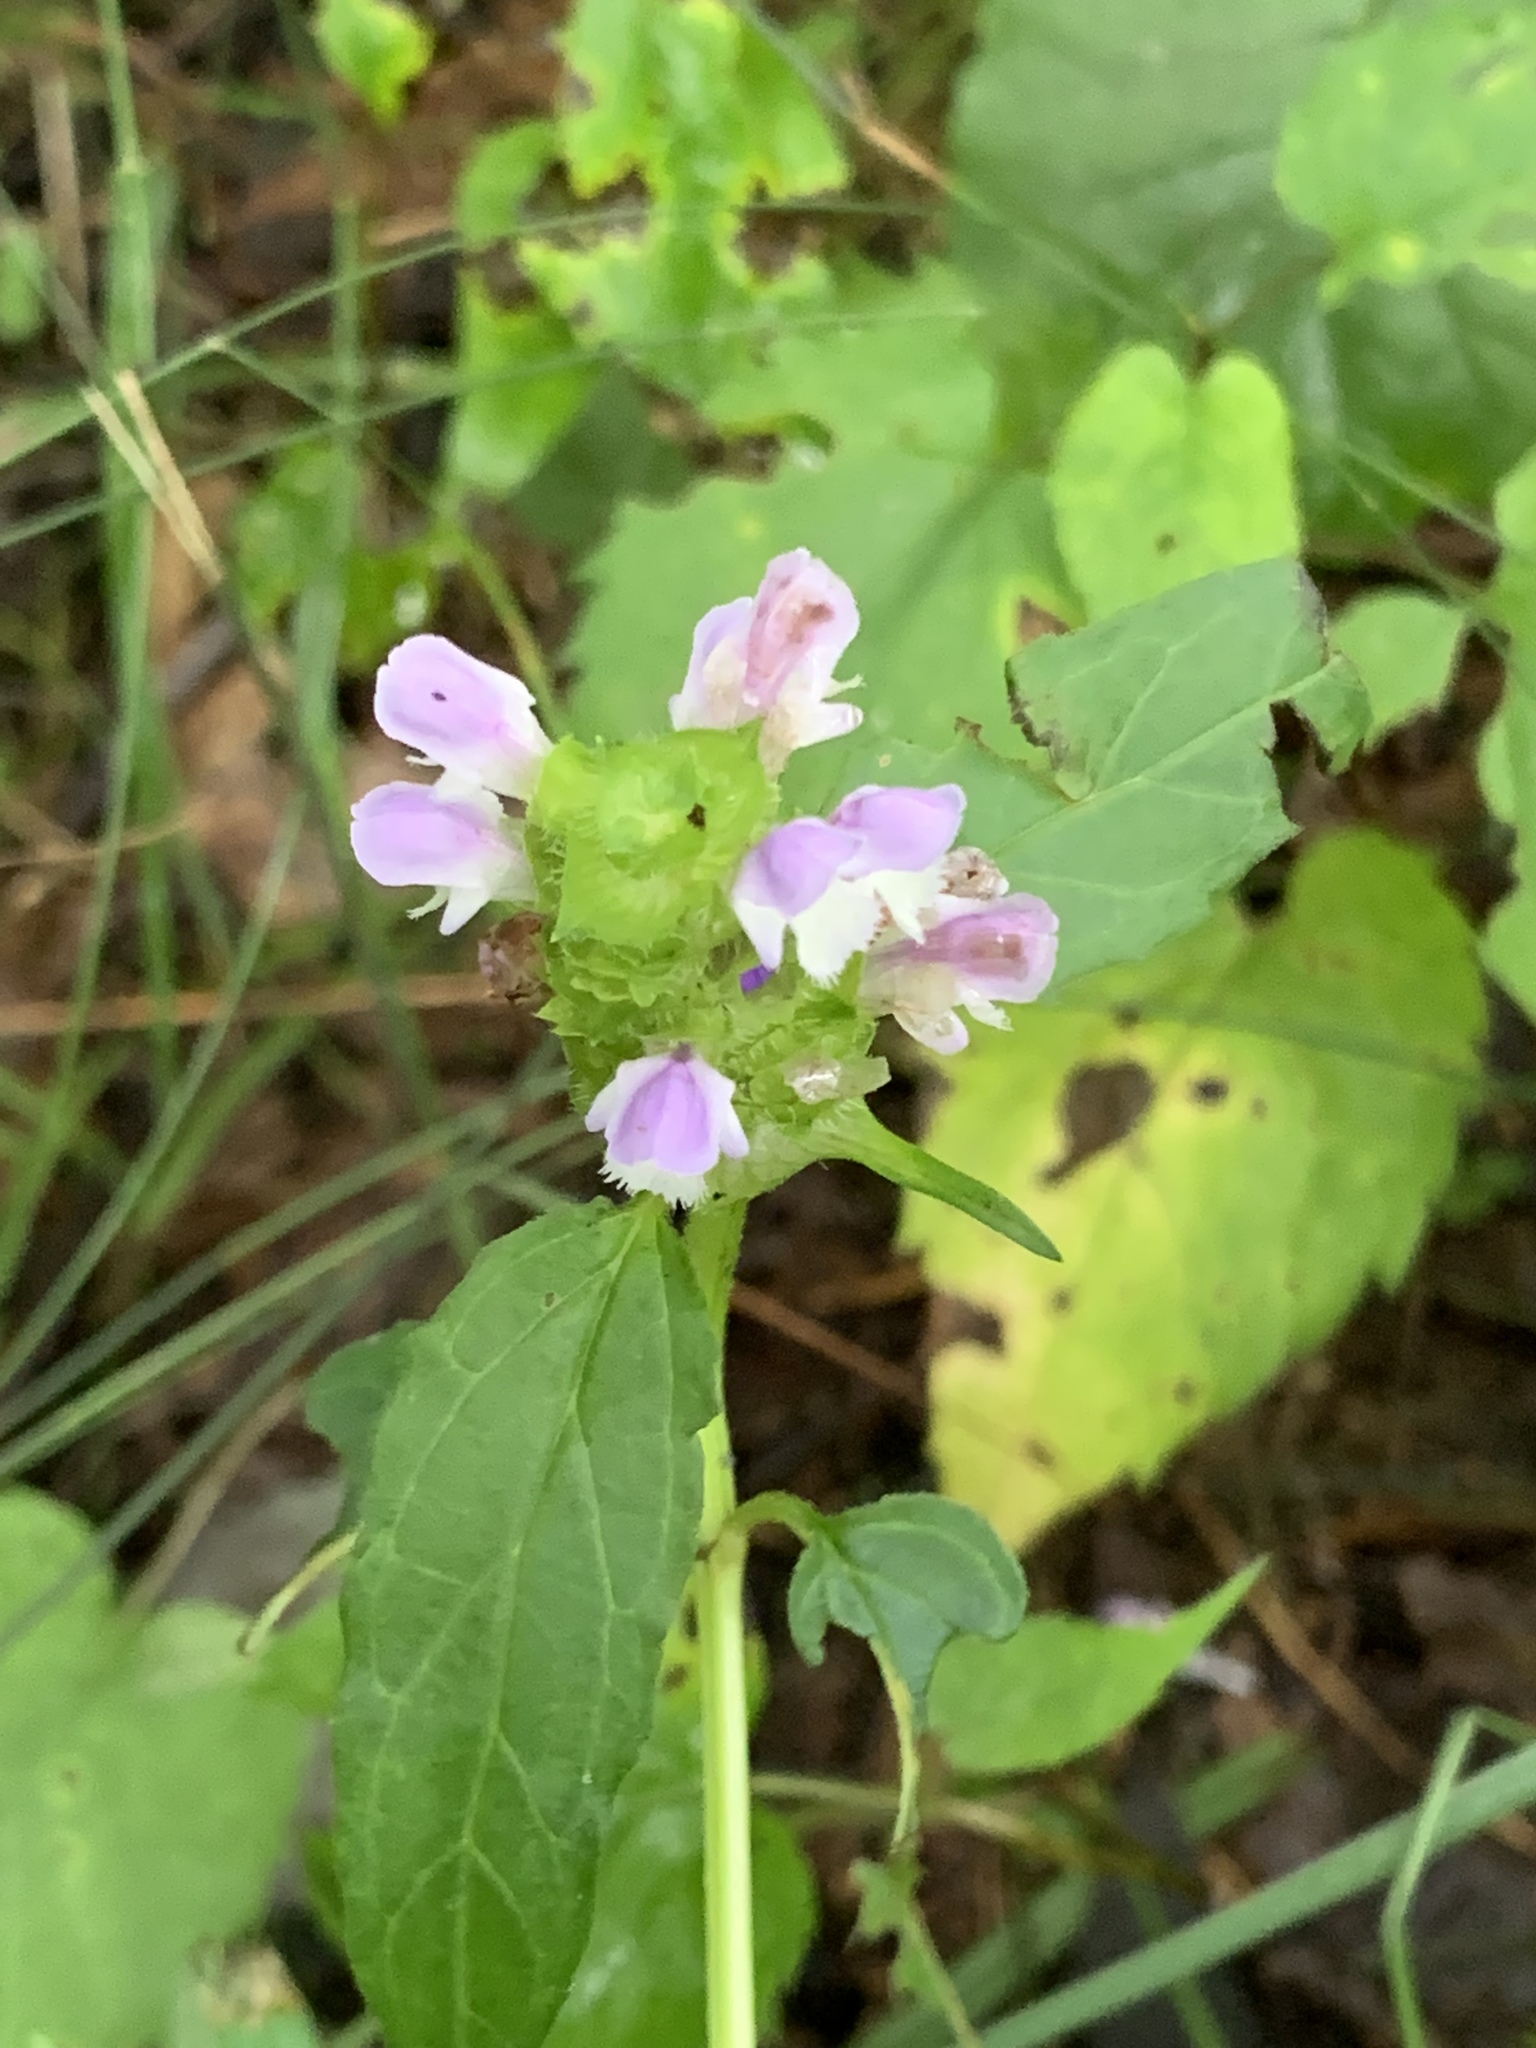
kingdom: Plantae
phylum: Tracheophyta
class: Magnoliopsida
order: Lamiales
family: Lamiaceae
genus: Prunella
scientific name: Prunella vulgaris
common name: Heal-all
